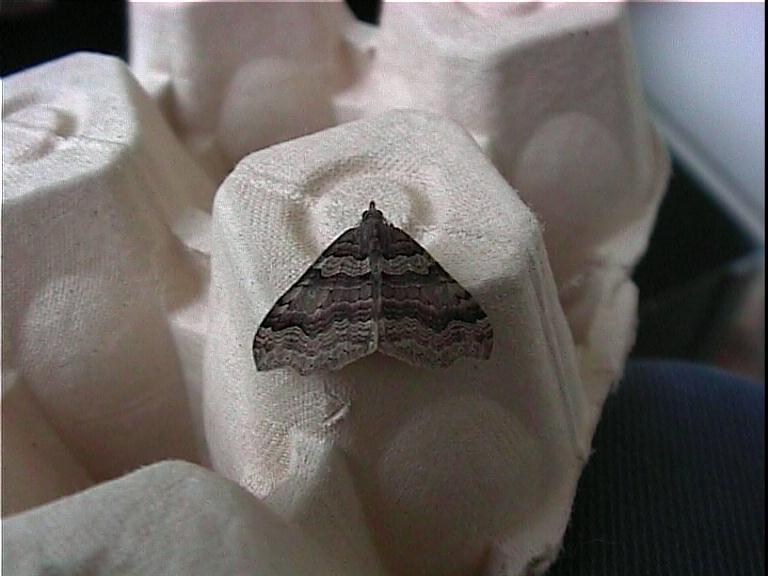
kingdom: Animalia
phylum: Arthropoda
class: Insecta
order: Lepidoptera
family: Geometridae
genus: Austrocidaria
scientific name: Austrocidaria parora
